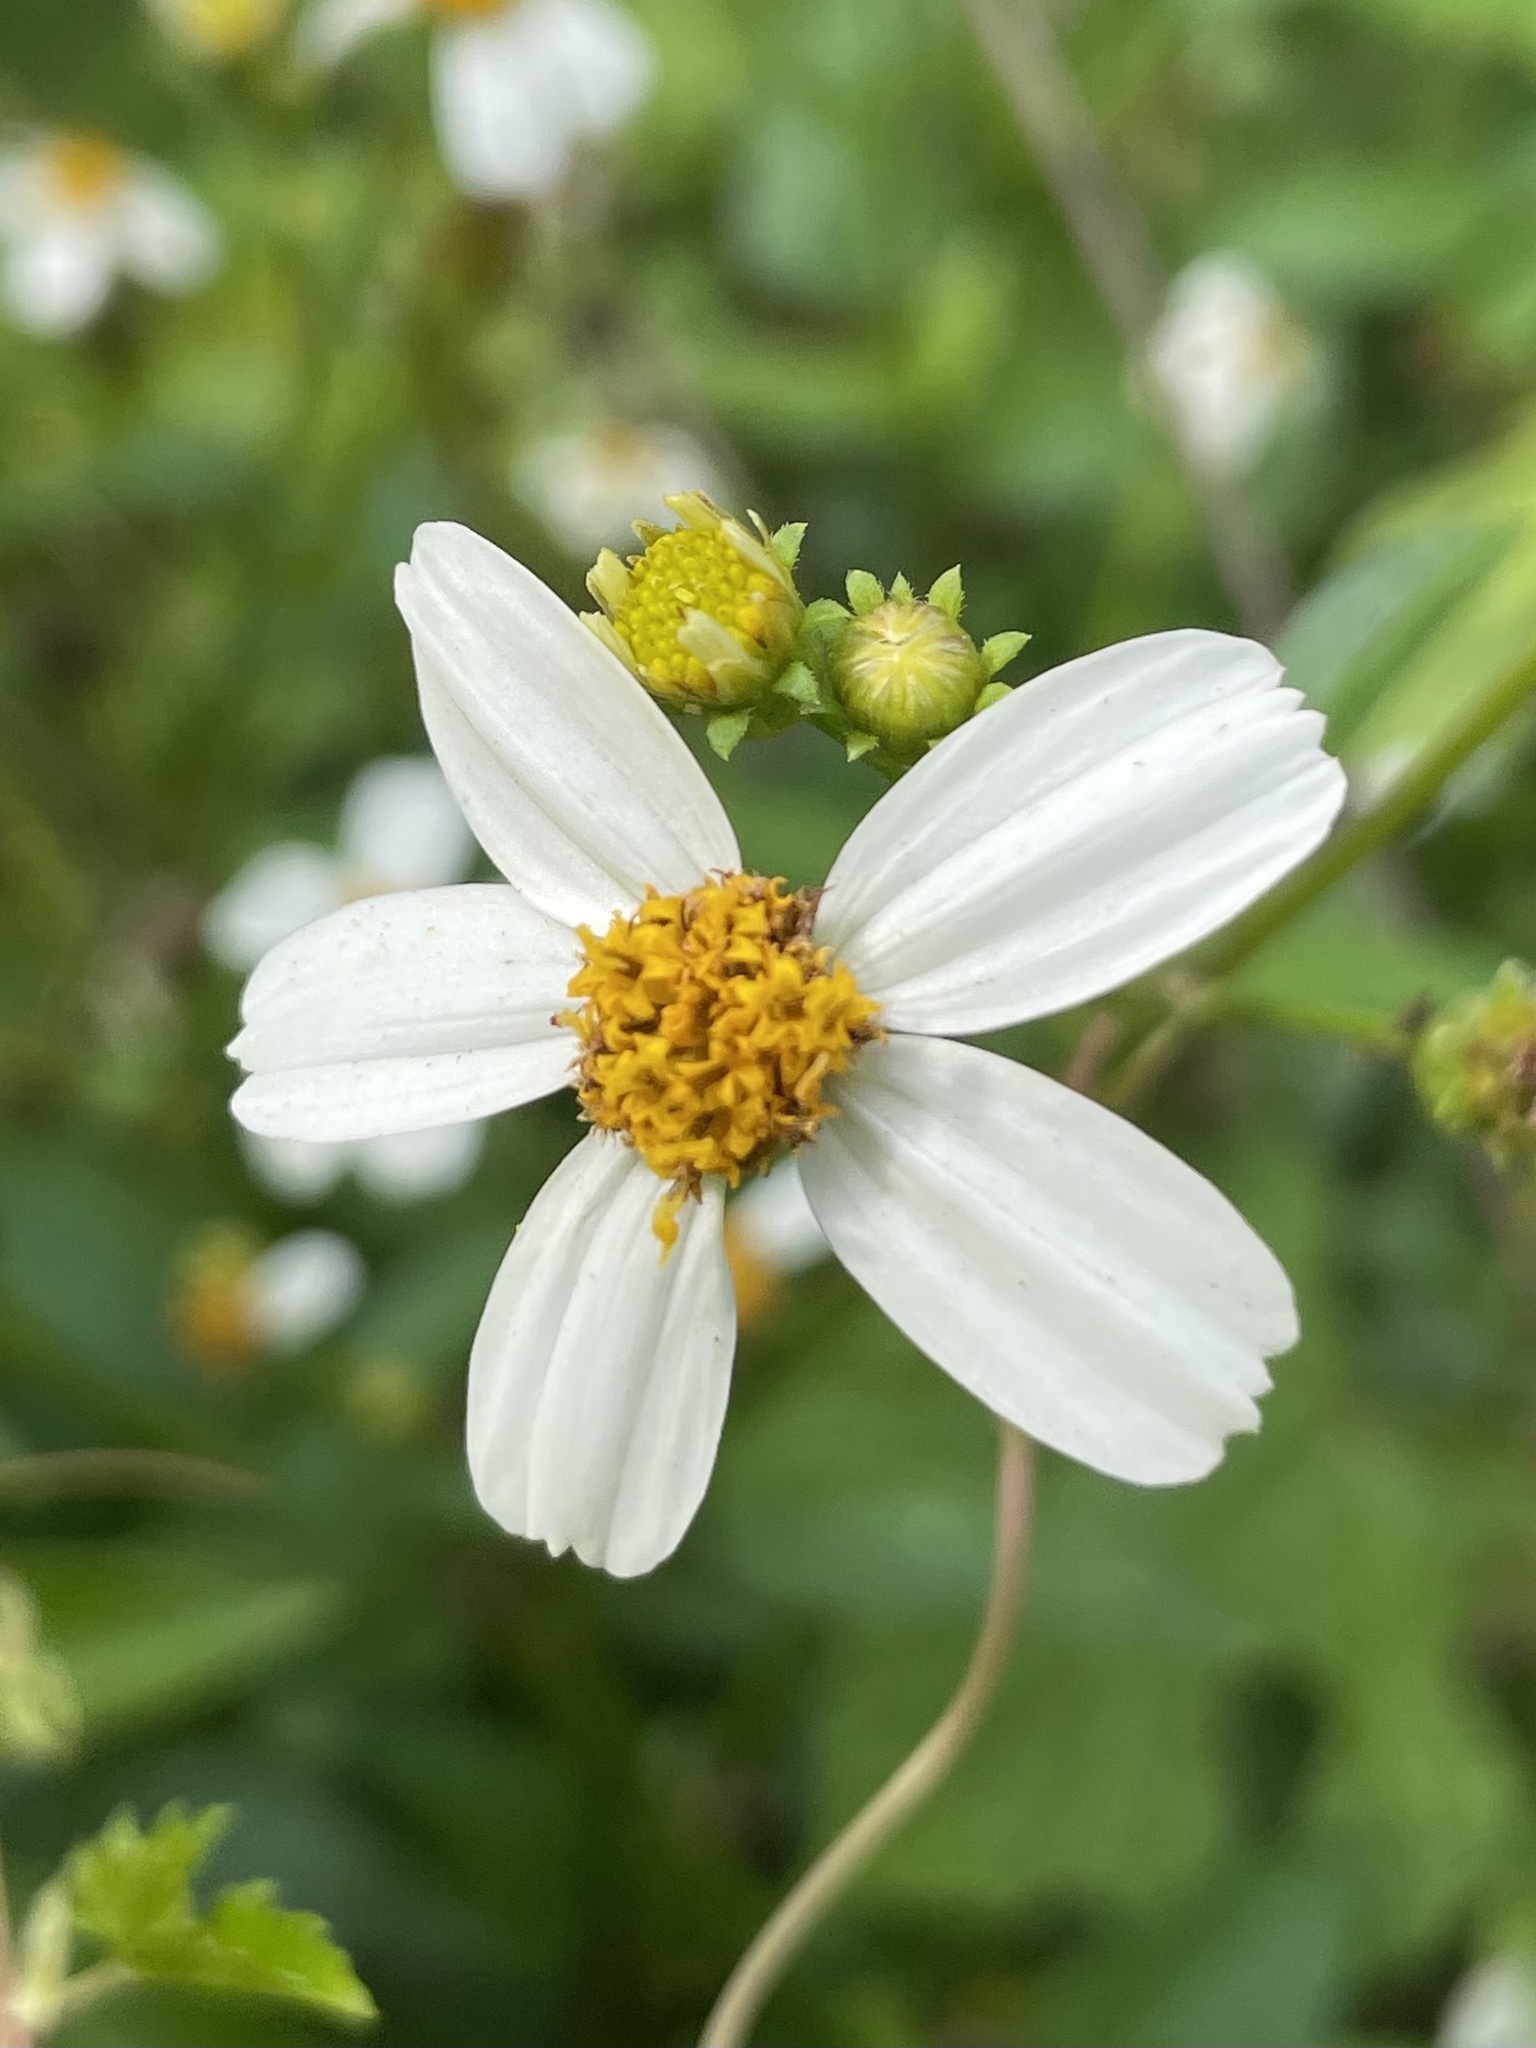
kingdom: Plantae
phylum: Tracheophyta
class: Magnoliopsida
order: Asterales
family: Asteraceae
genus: Bidens
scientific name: Bidens alba
